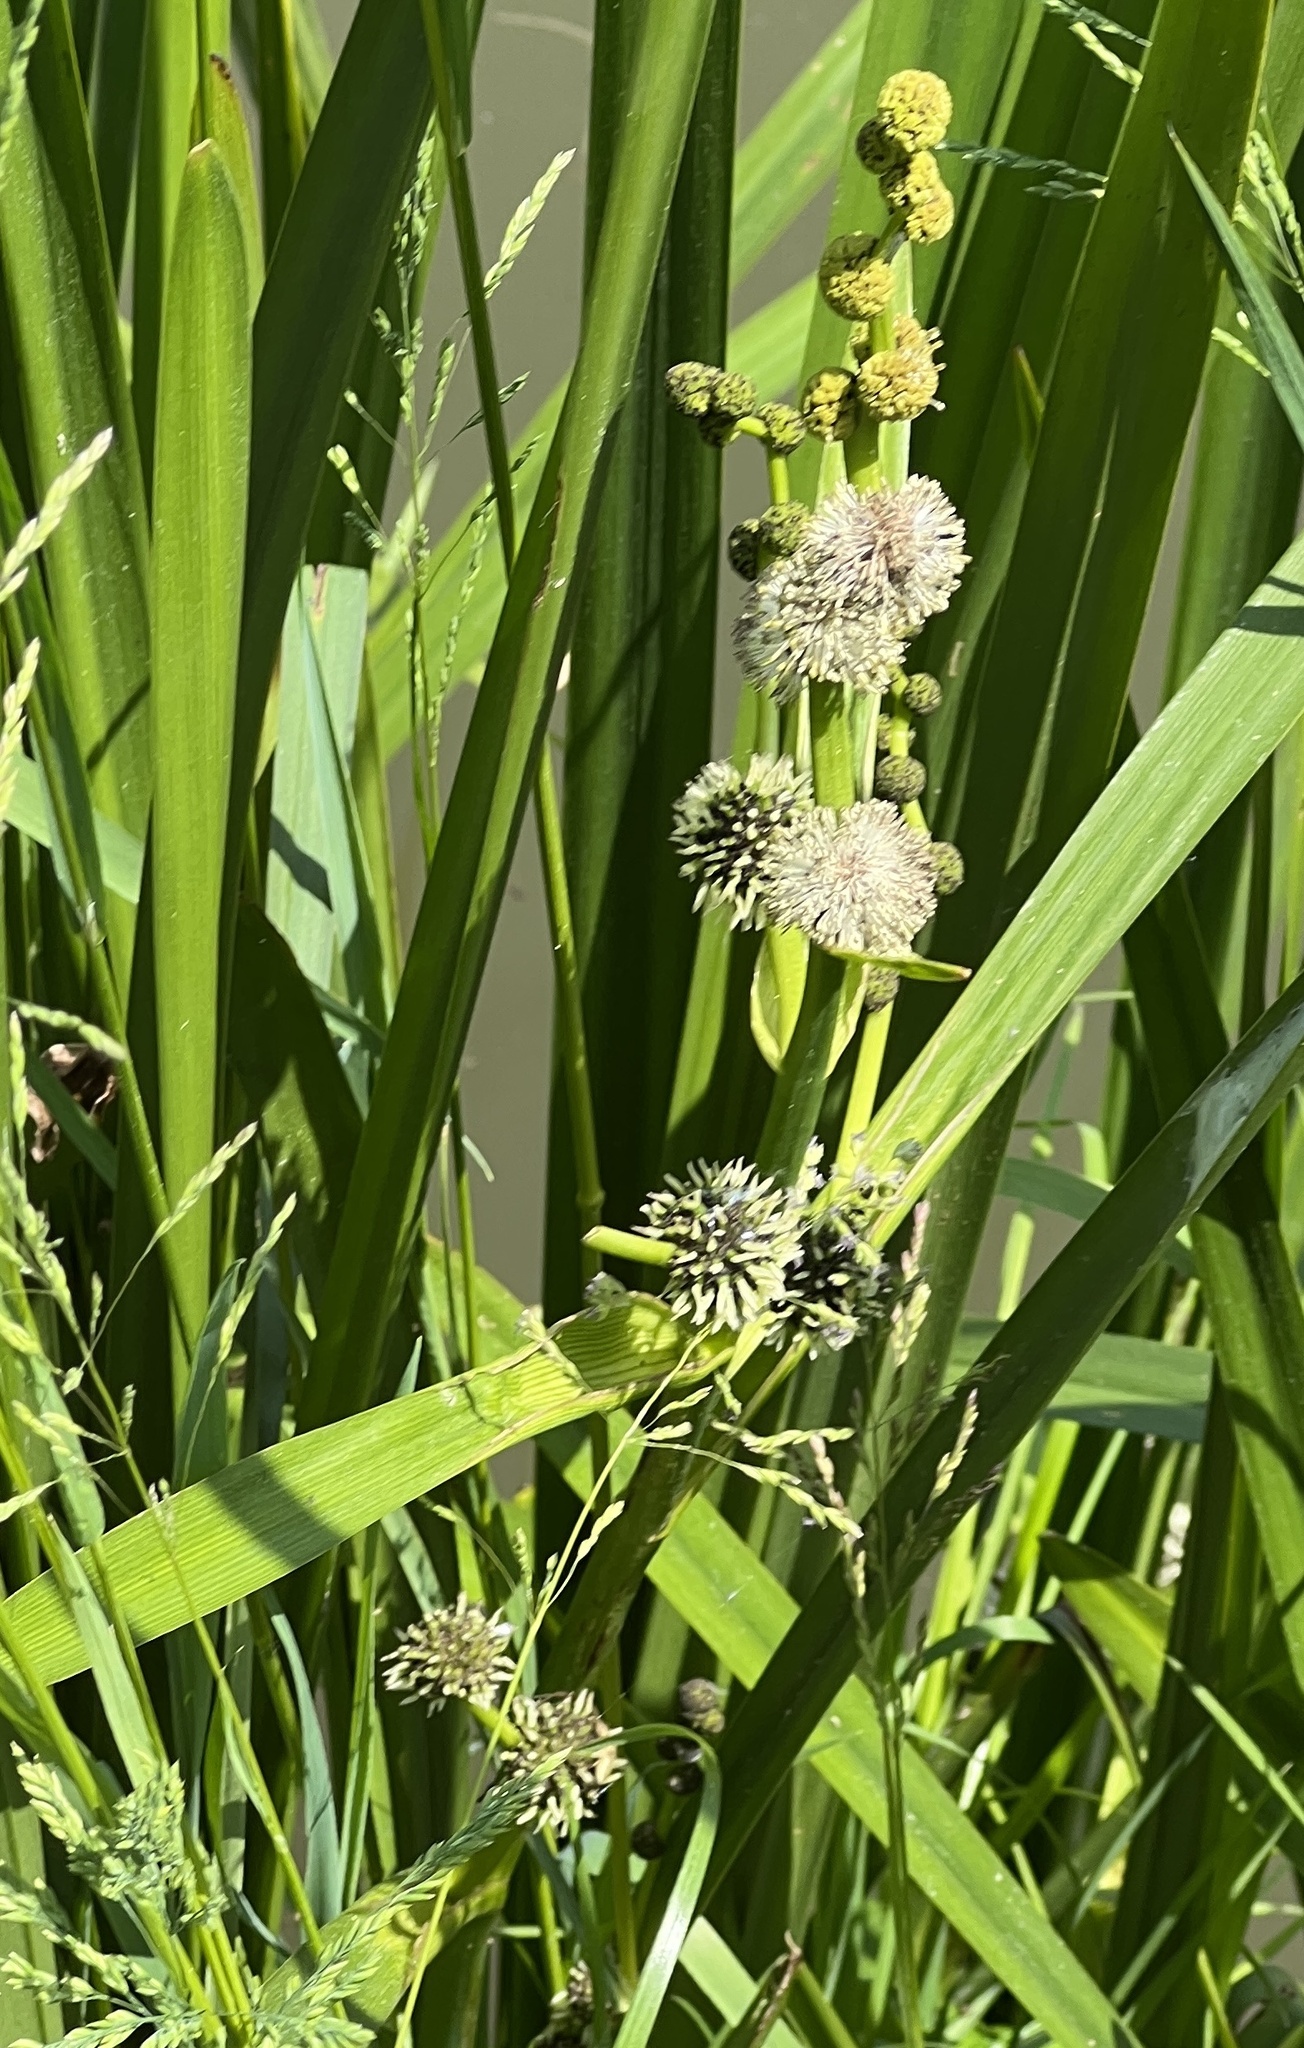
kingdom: Plantae
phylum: Tracheophyta
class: Liliopsida
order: Poales
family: Typhaceae
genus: Sparganium
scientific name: Sparganium erectum
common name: Branched bur-reed
